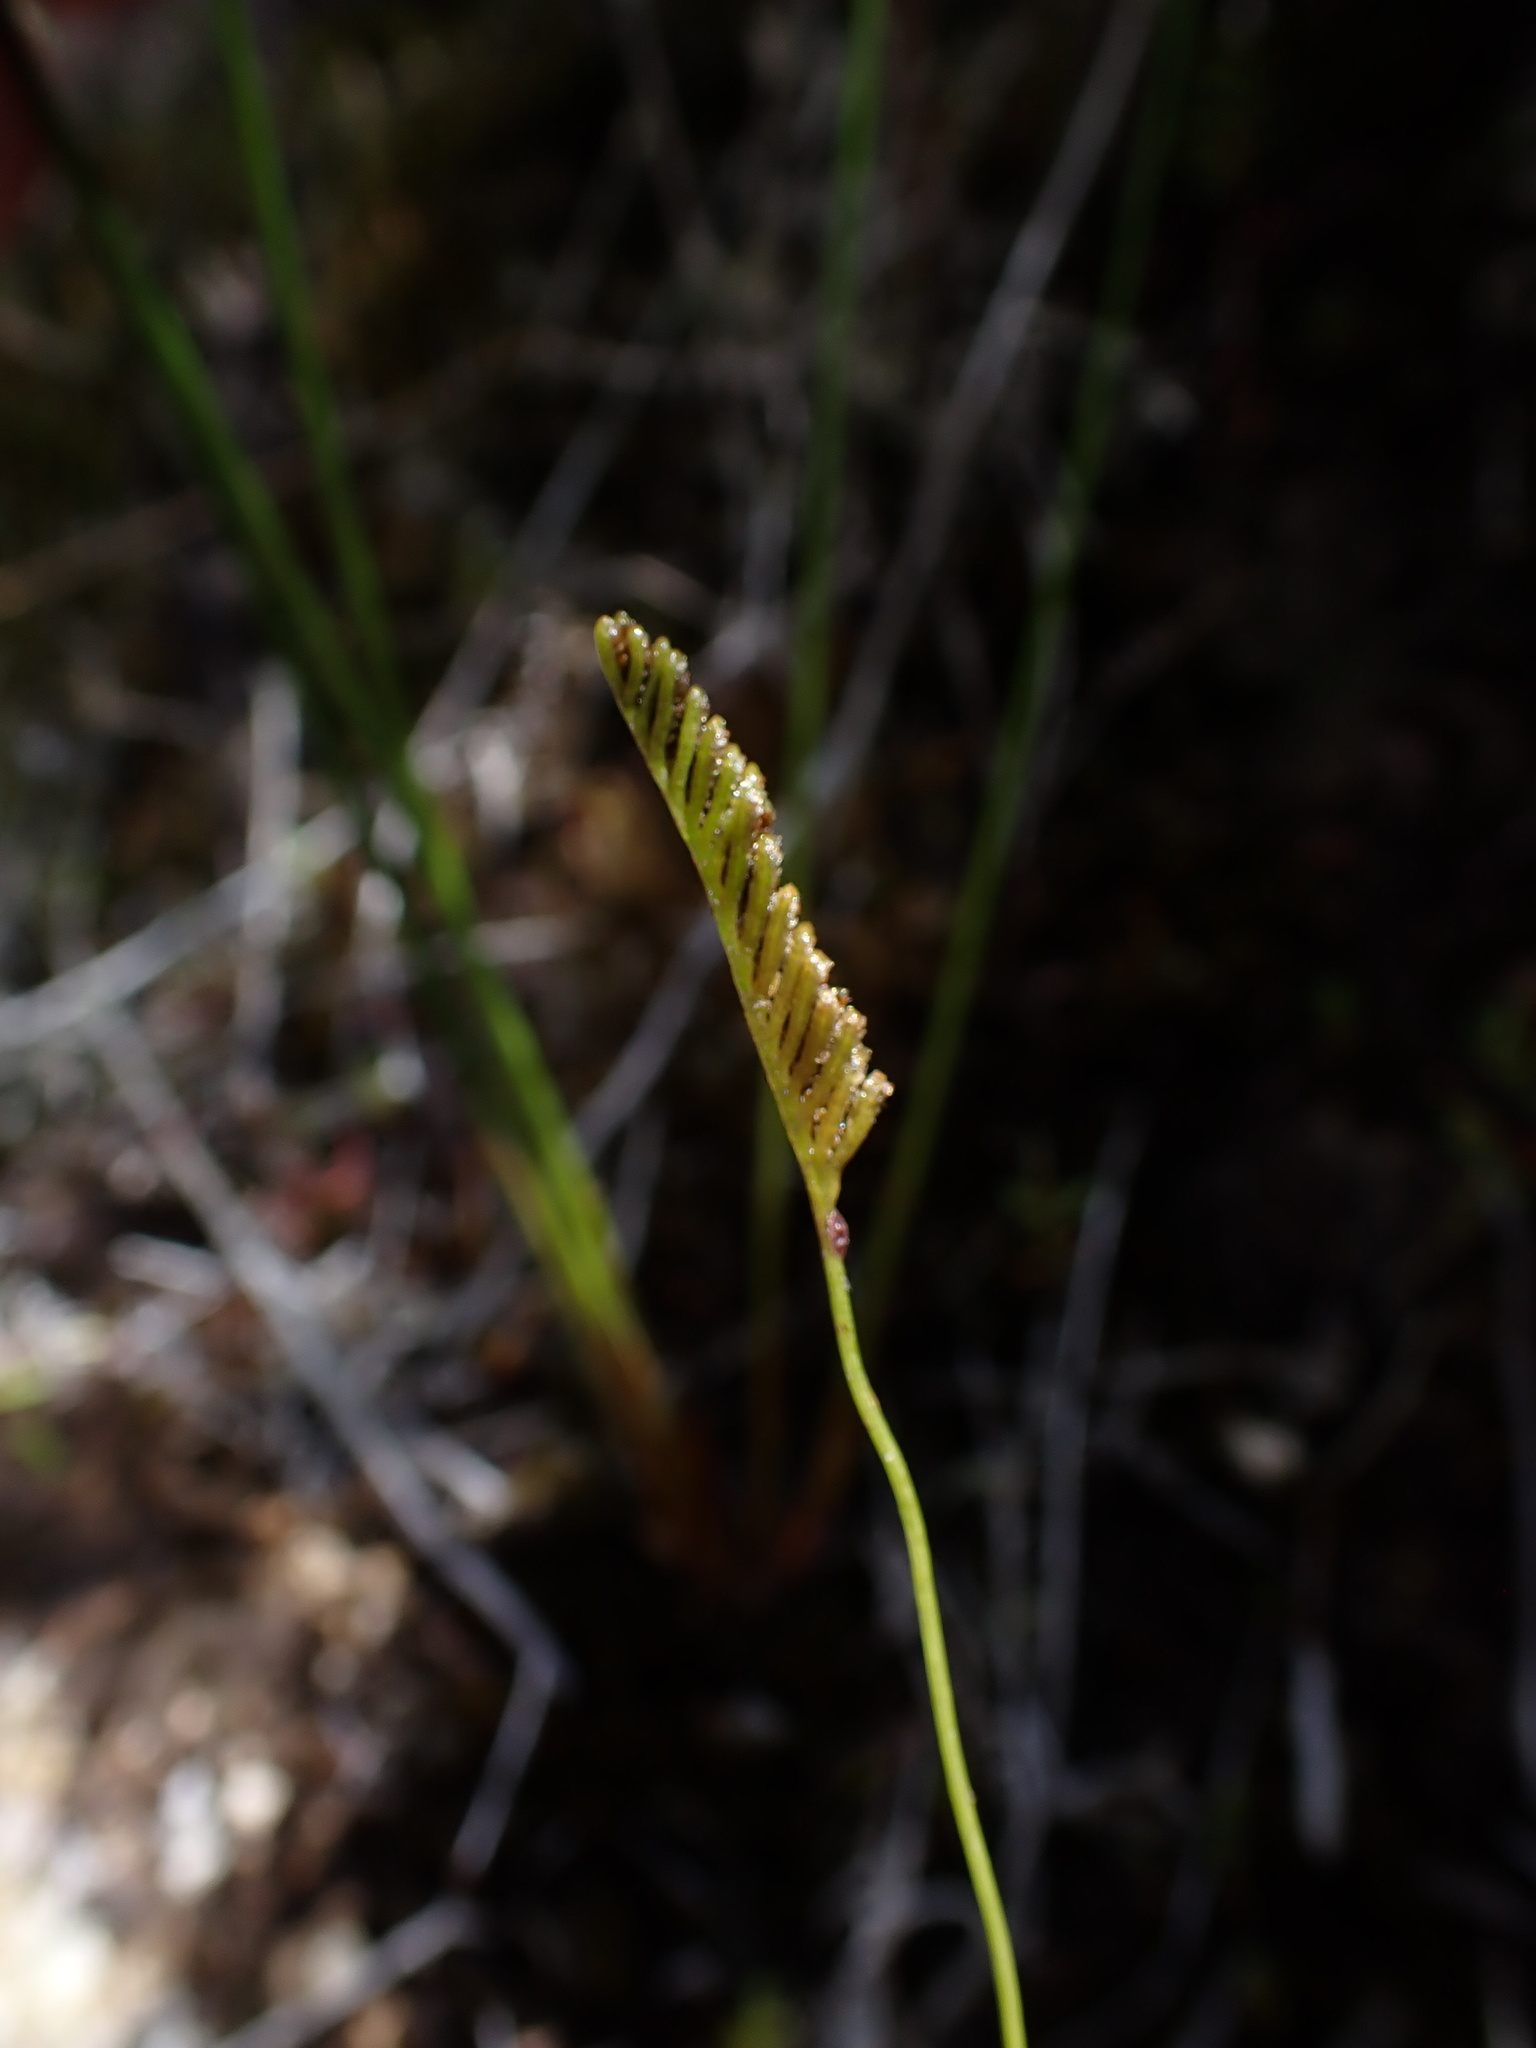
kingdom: Plantae
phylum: Tracheophyta
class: Polypodiopsida
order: Schizaeales
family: Schizaeaceae
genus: Microschizaea
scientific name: Microschizaea fistulosa
